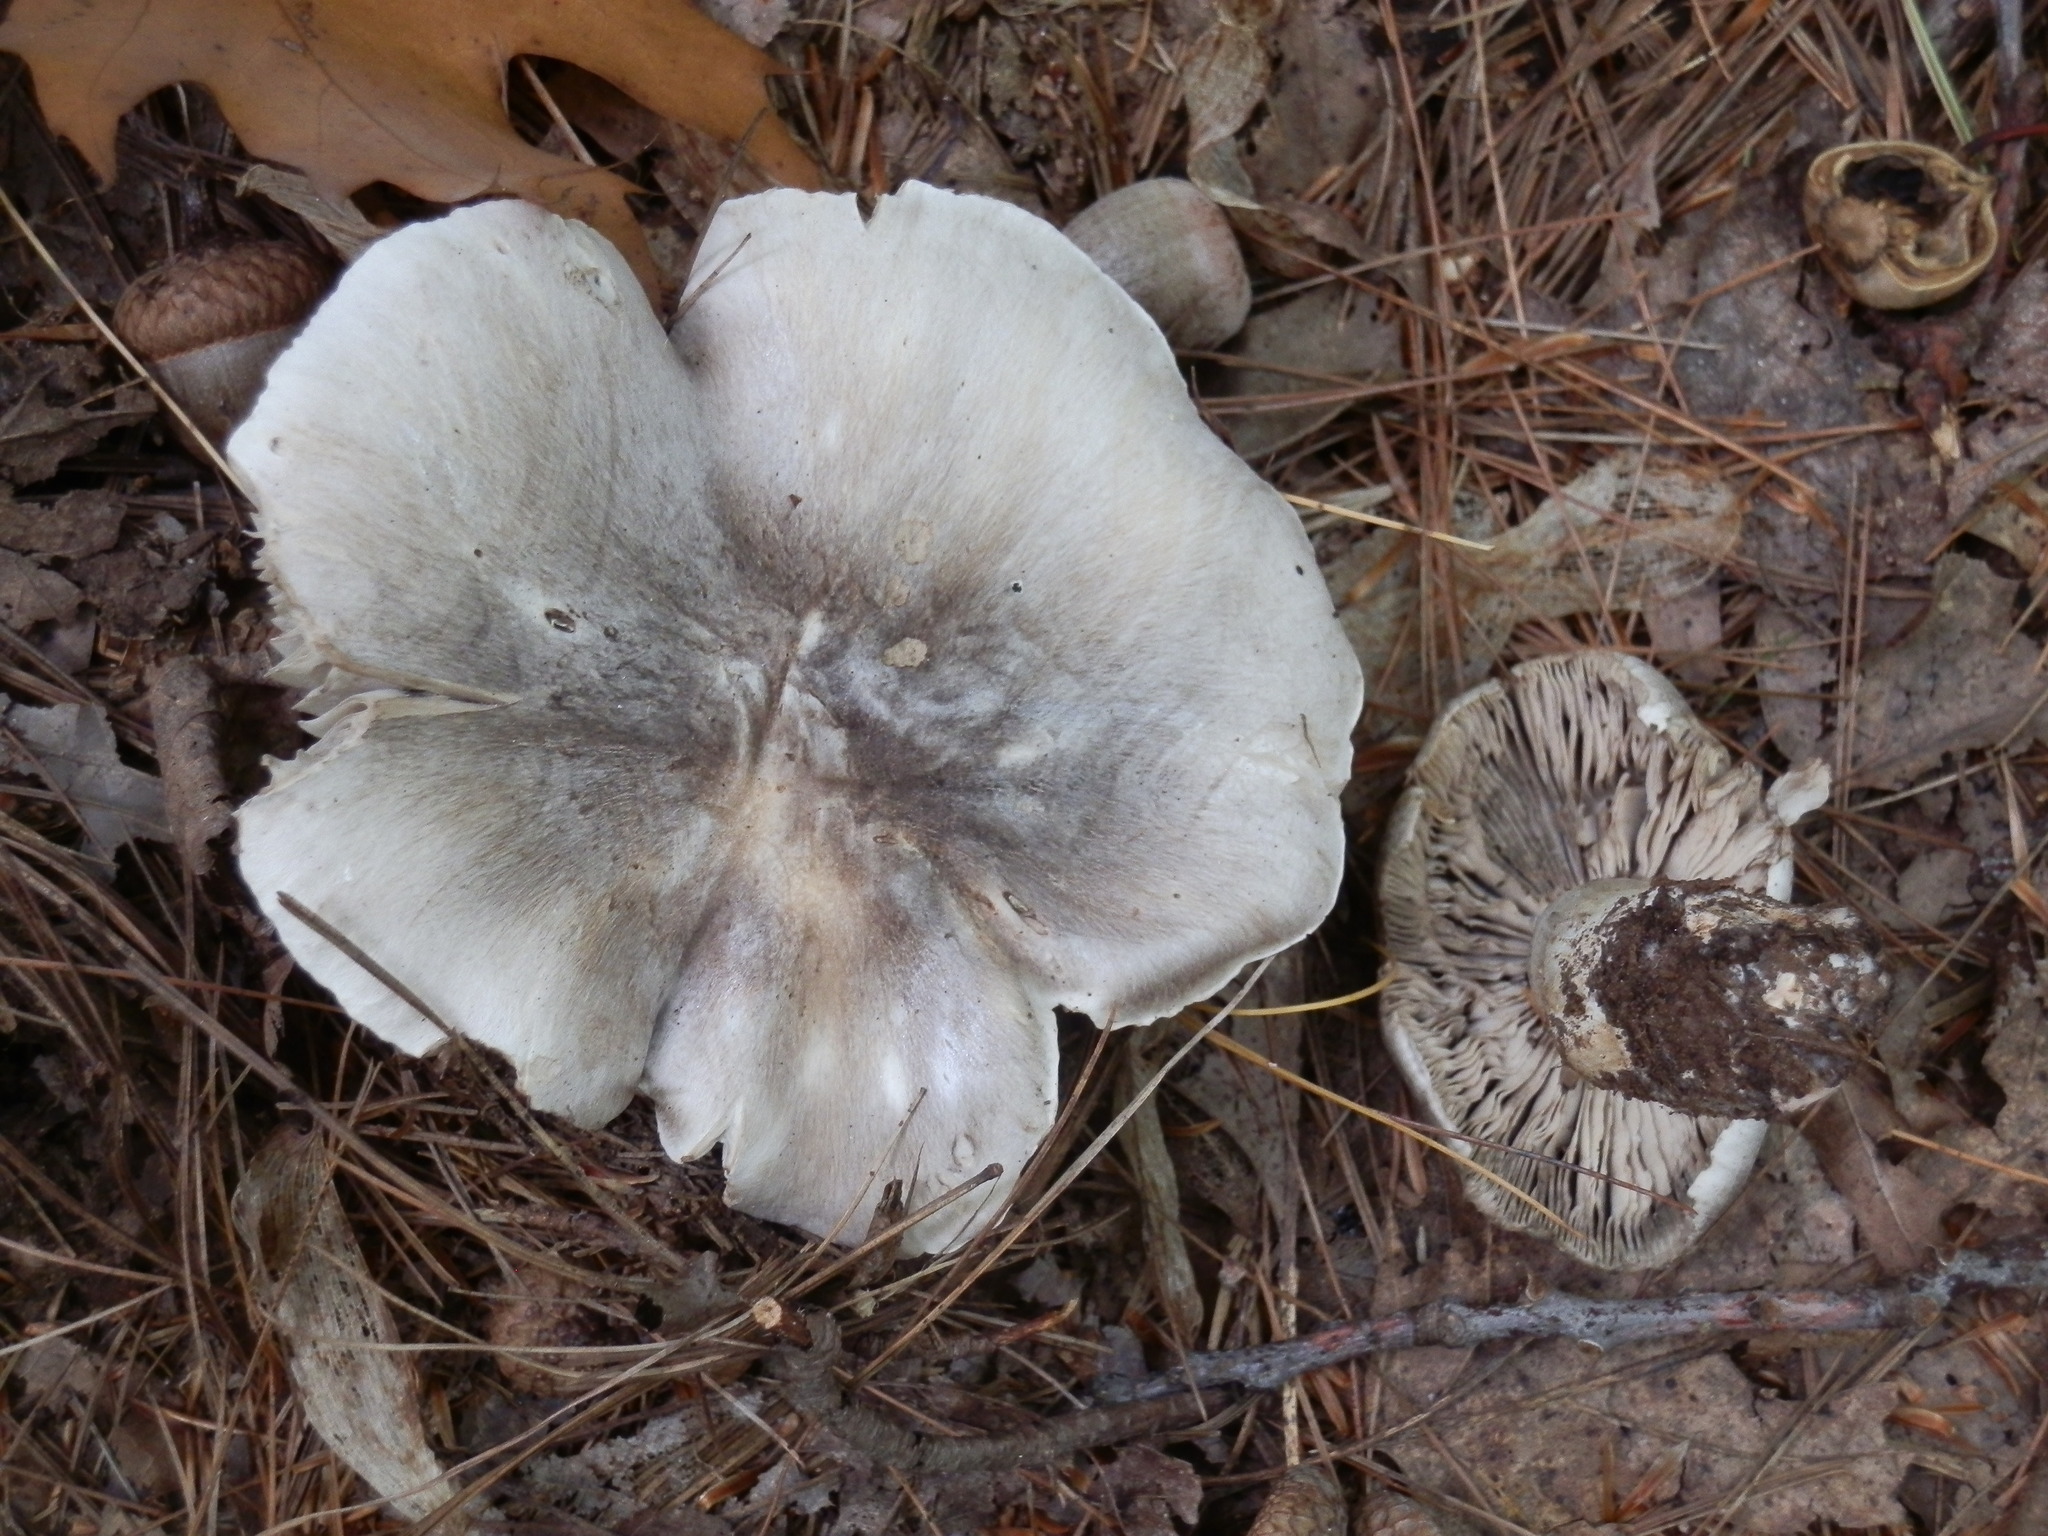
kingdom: Fungi
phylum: Basidiomycota
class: Agaricomycetes
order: Agaricales
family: Tricholomataceae
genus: Tricholoma
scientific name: Tricholoma pullum
